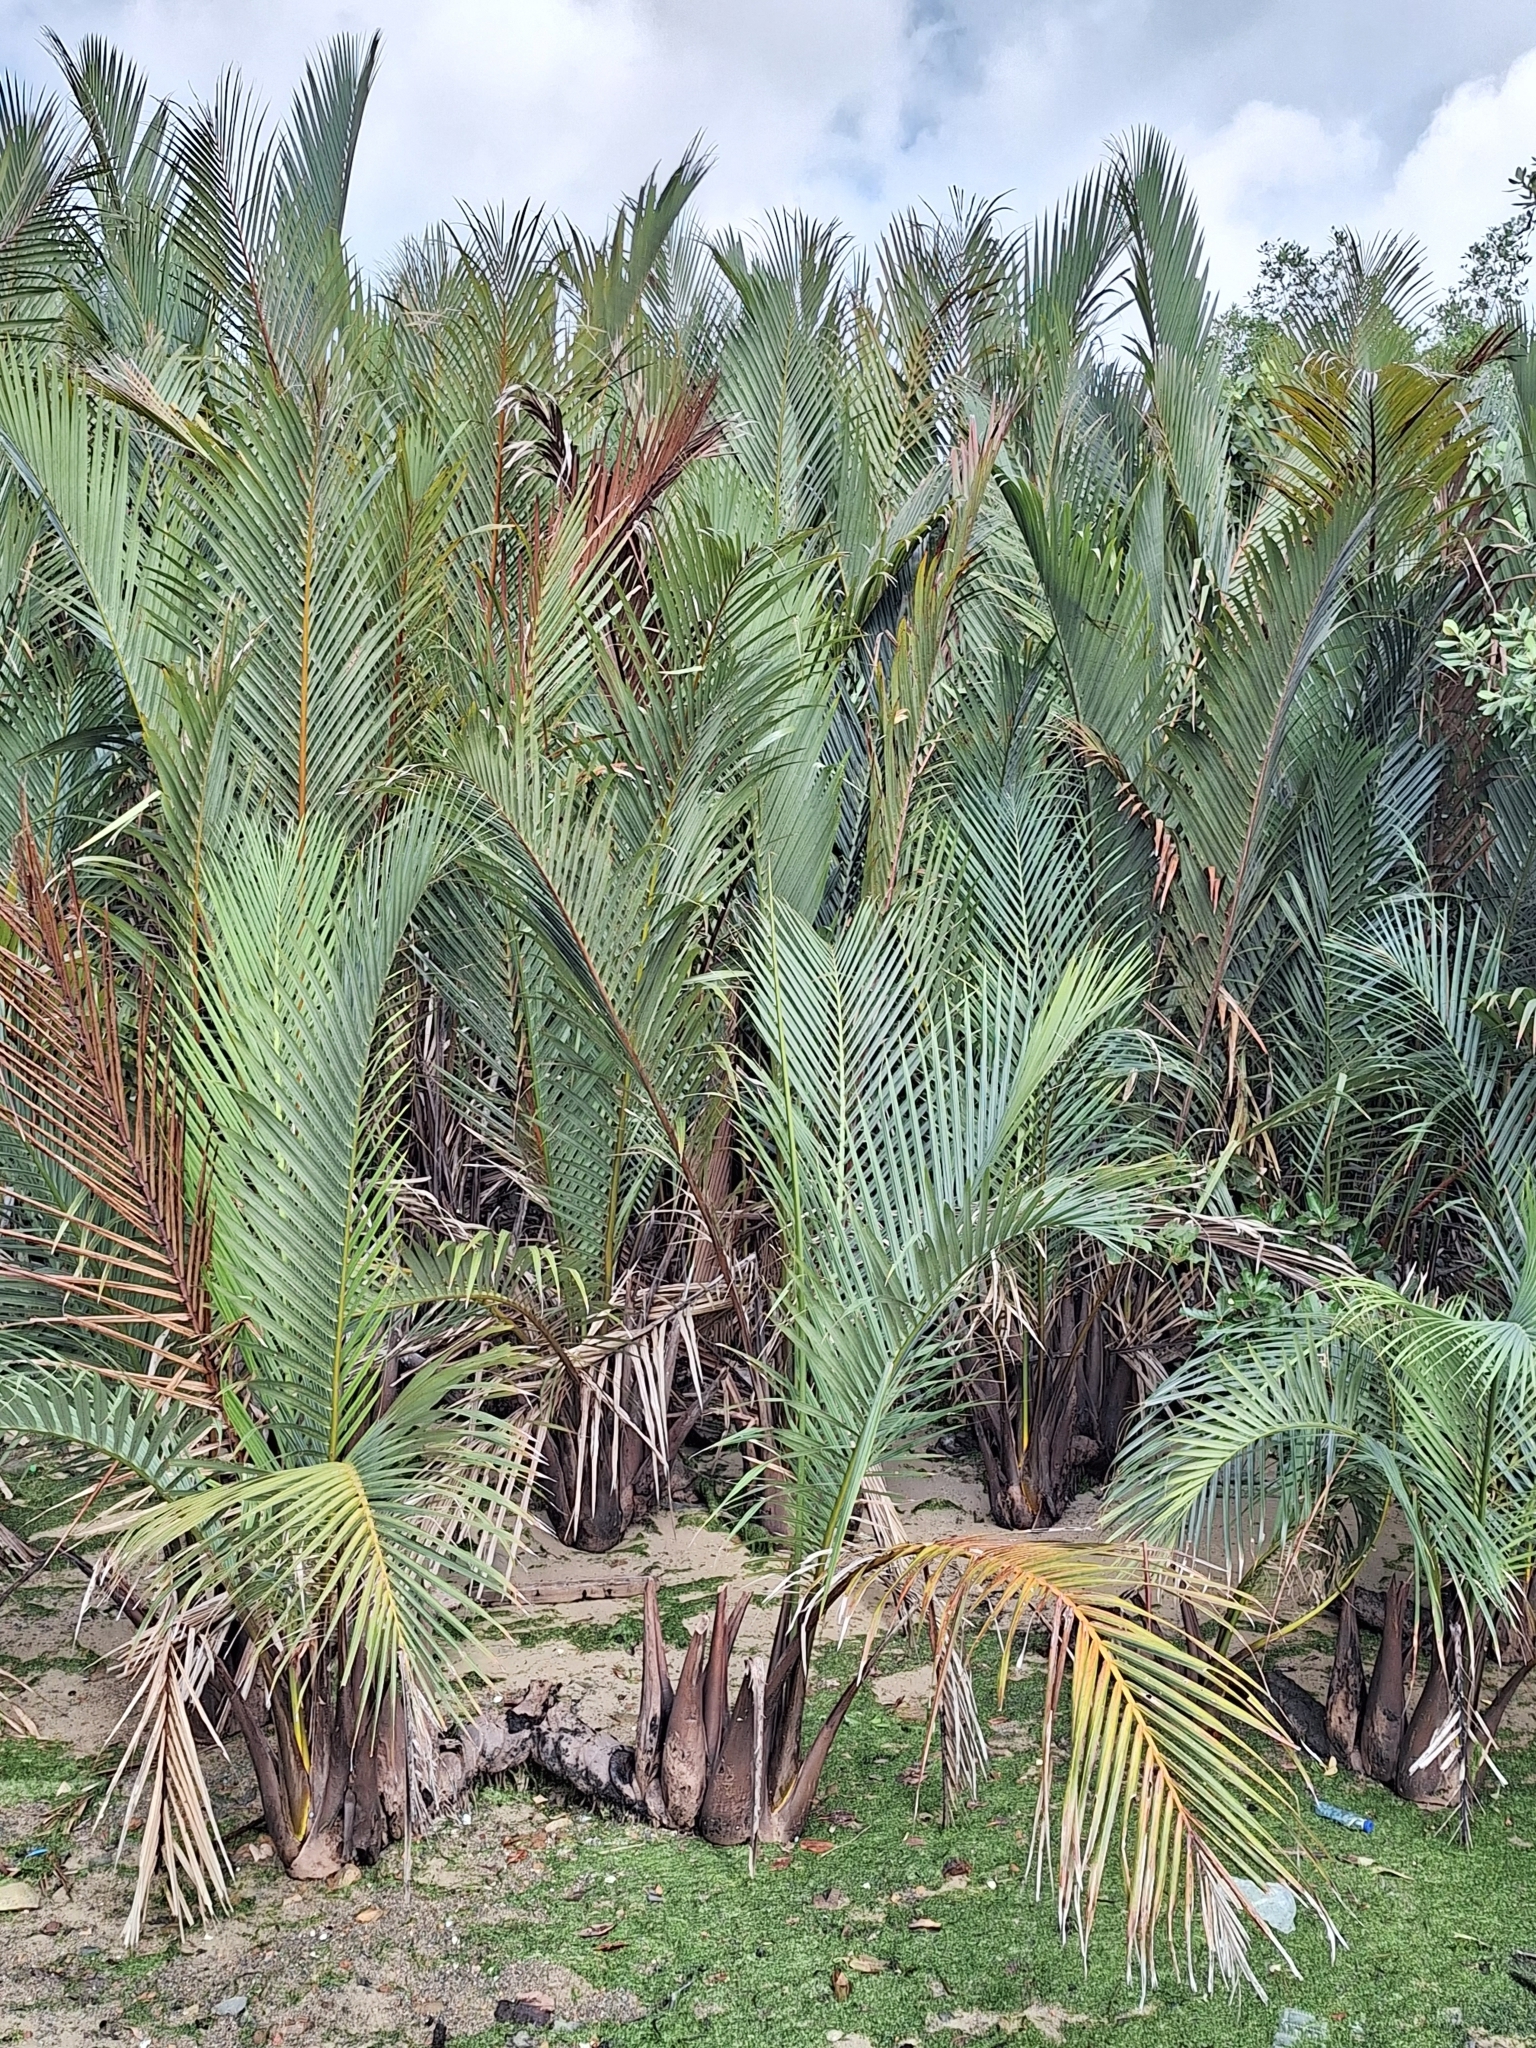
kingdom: Plantae
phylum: Tracheophyta
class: Liliopsida
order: Arecales
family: Arecaceae
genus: Nypa
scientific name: Nypa fruticans
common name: Mangrove palm
